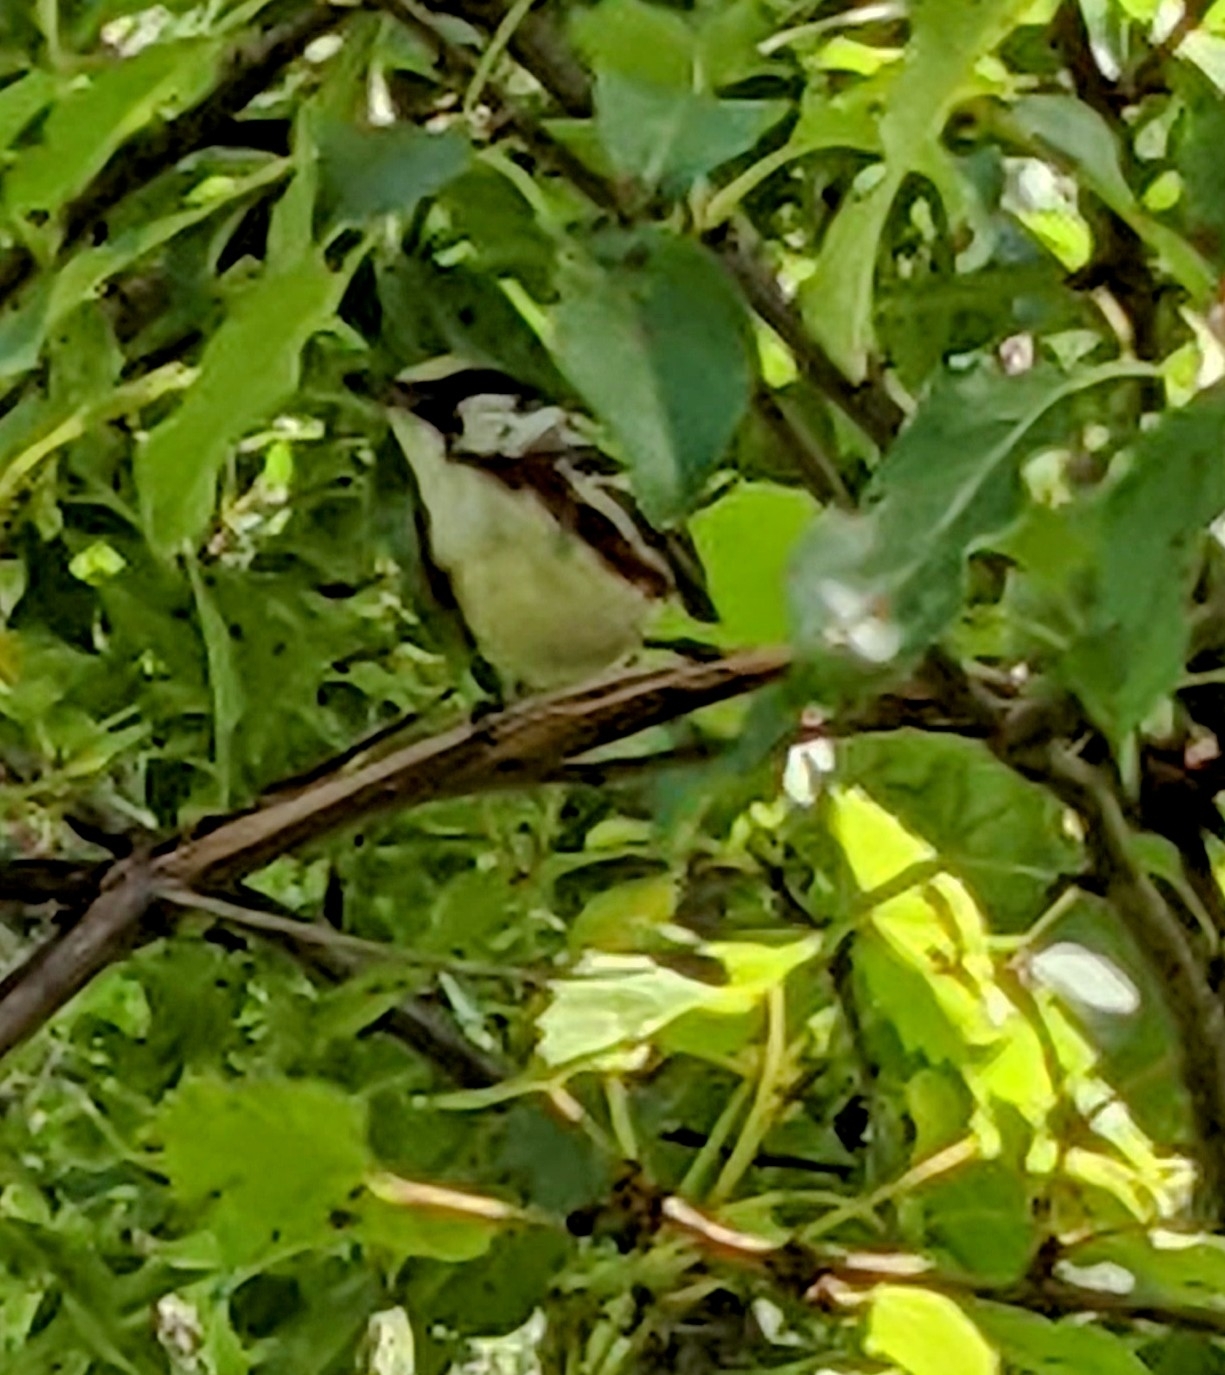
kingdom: Animalia
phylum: Chordata
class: Aves
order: Passeriformes
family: Parulidae
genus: Setophaga
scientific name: Setophaga pensylvanica
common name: Chestnut-sided warbler
